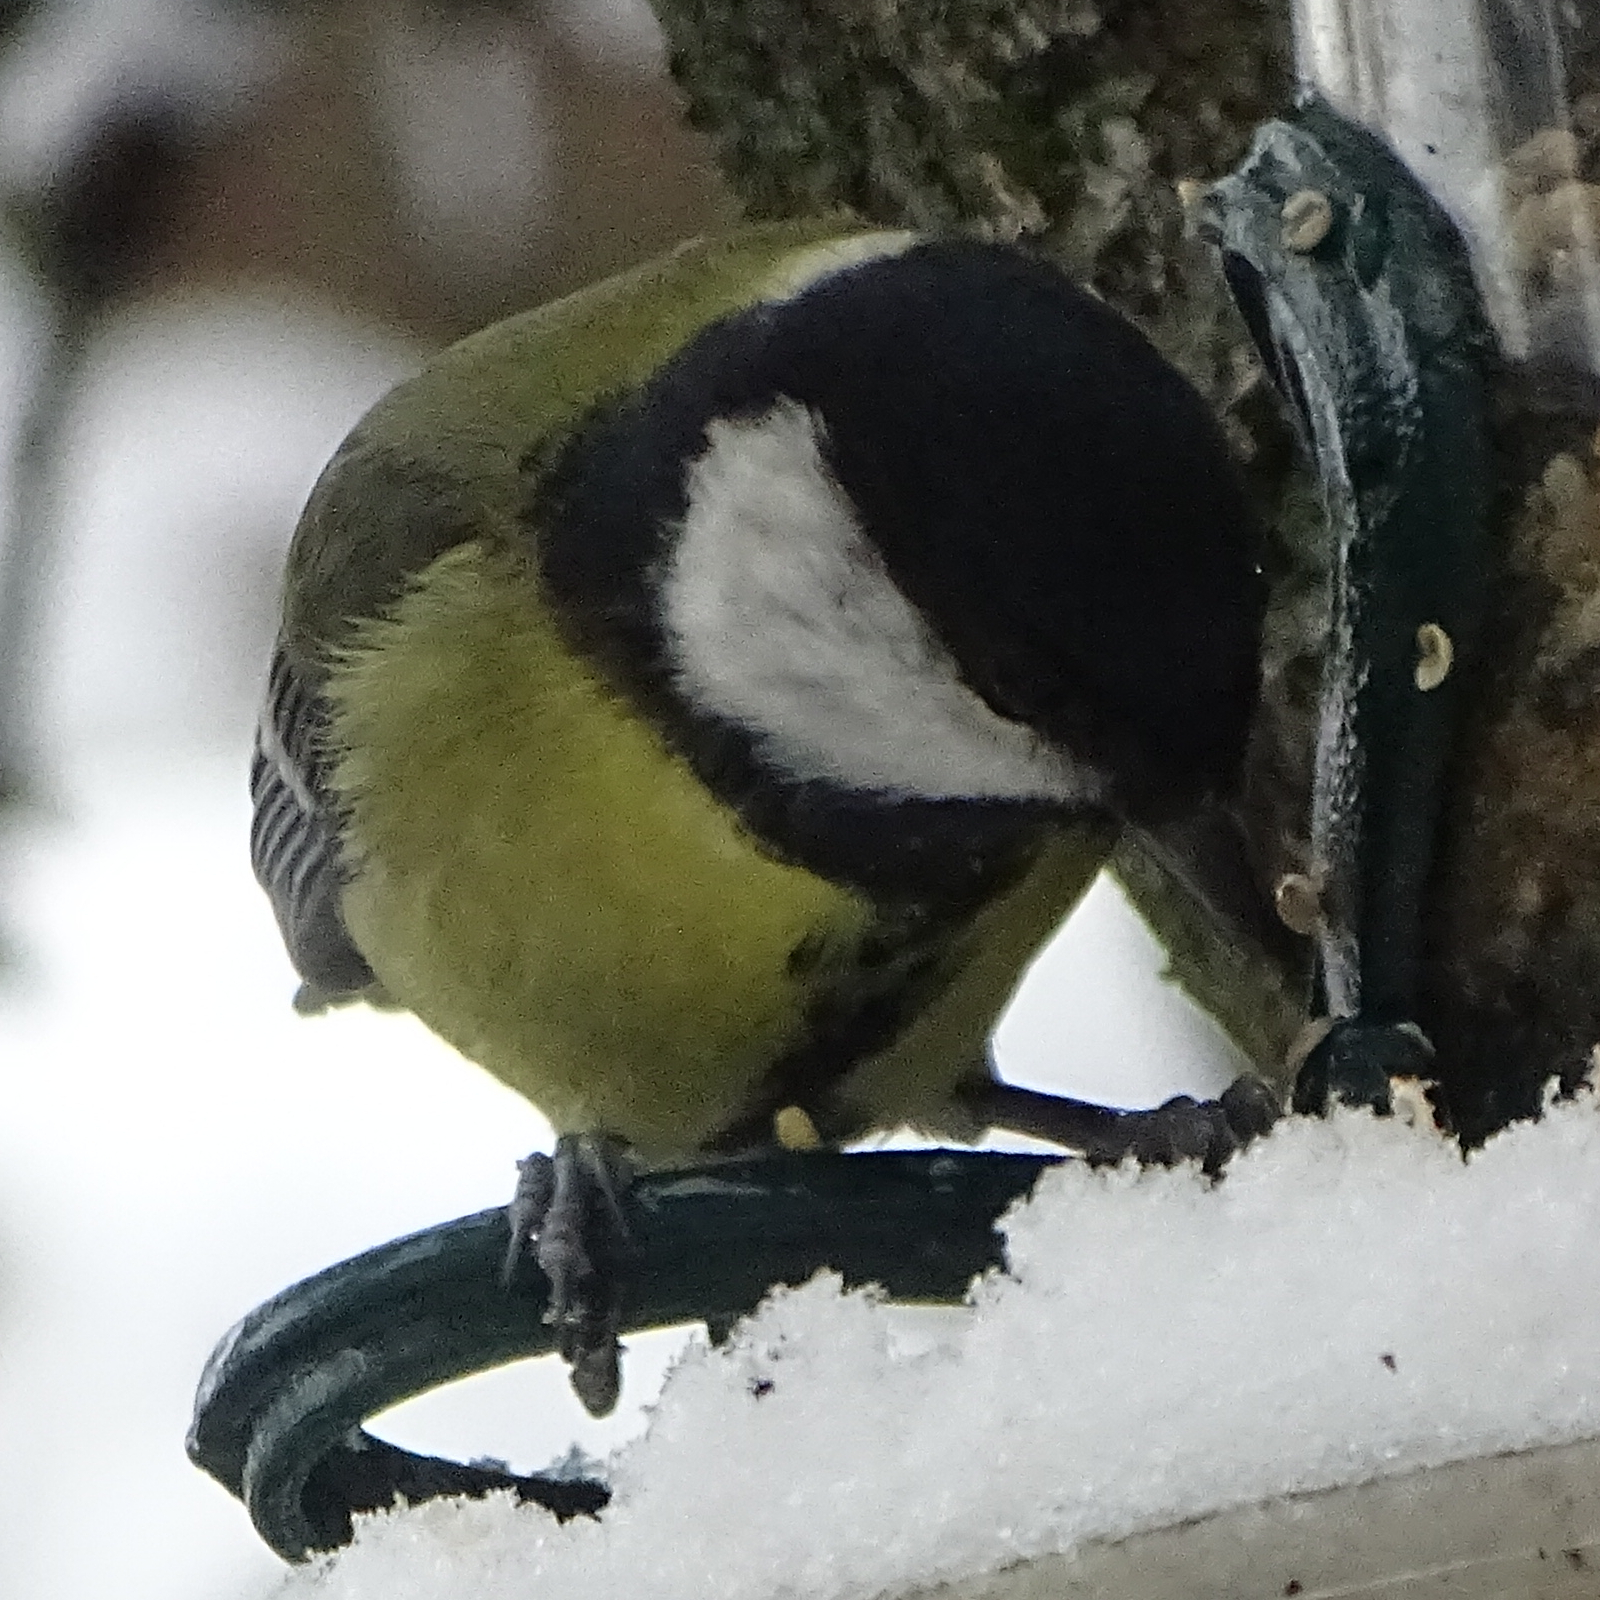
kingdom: Animalia
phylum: Chordata
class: Aves
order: Passeriformes
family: Paridae
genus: Parus
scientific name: Parus major
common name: Great tit
